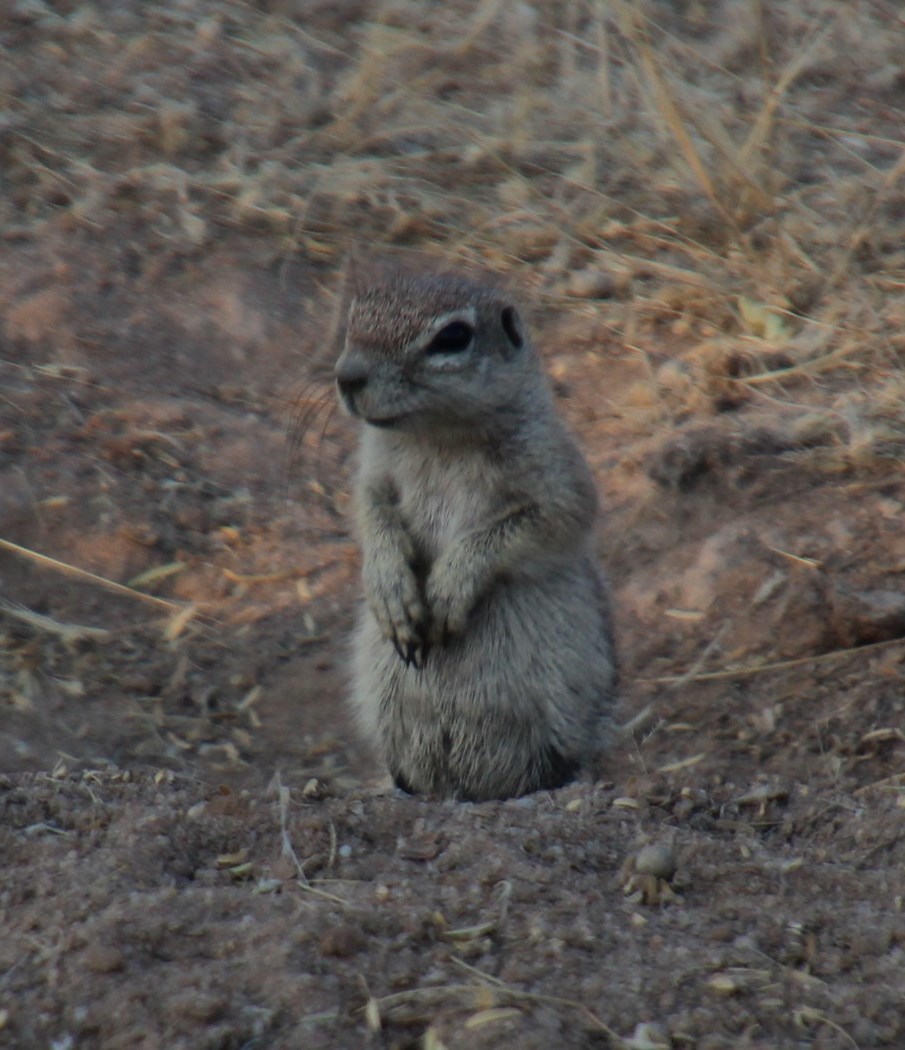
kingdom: Animalia
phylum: Chordata
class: Mammalia
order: Rodentia
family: Sciuridae
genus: Xerus
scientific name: Xerus inauris
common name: South african ground squirrel
